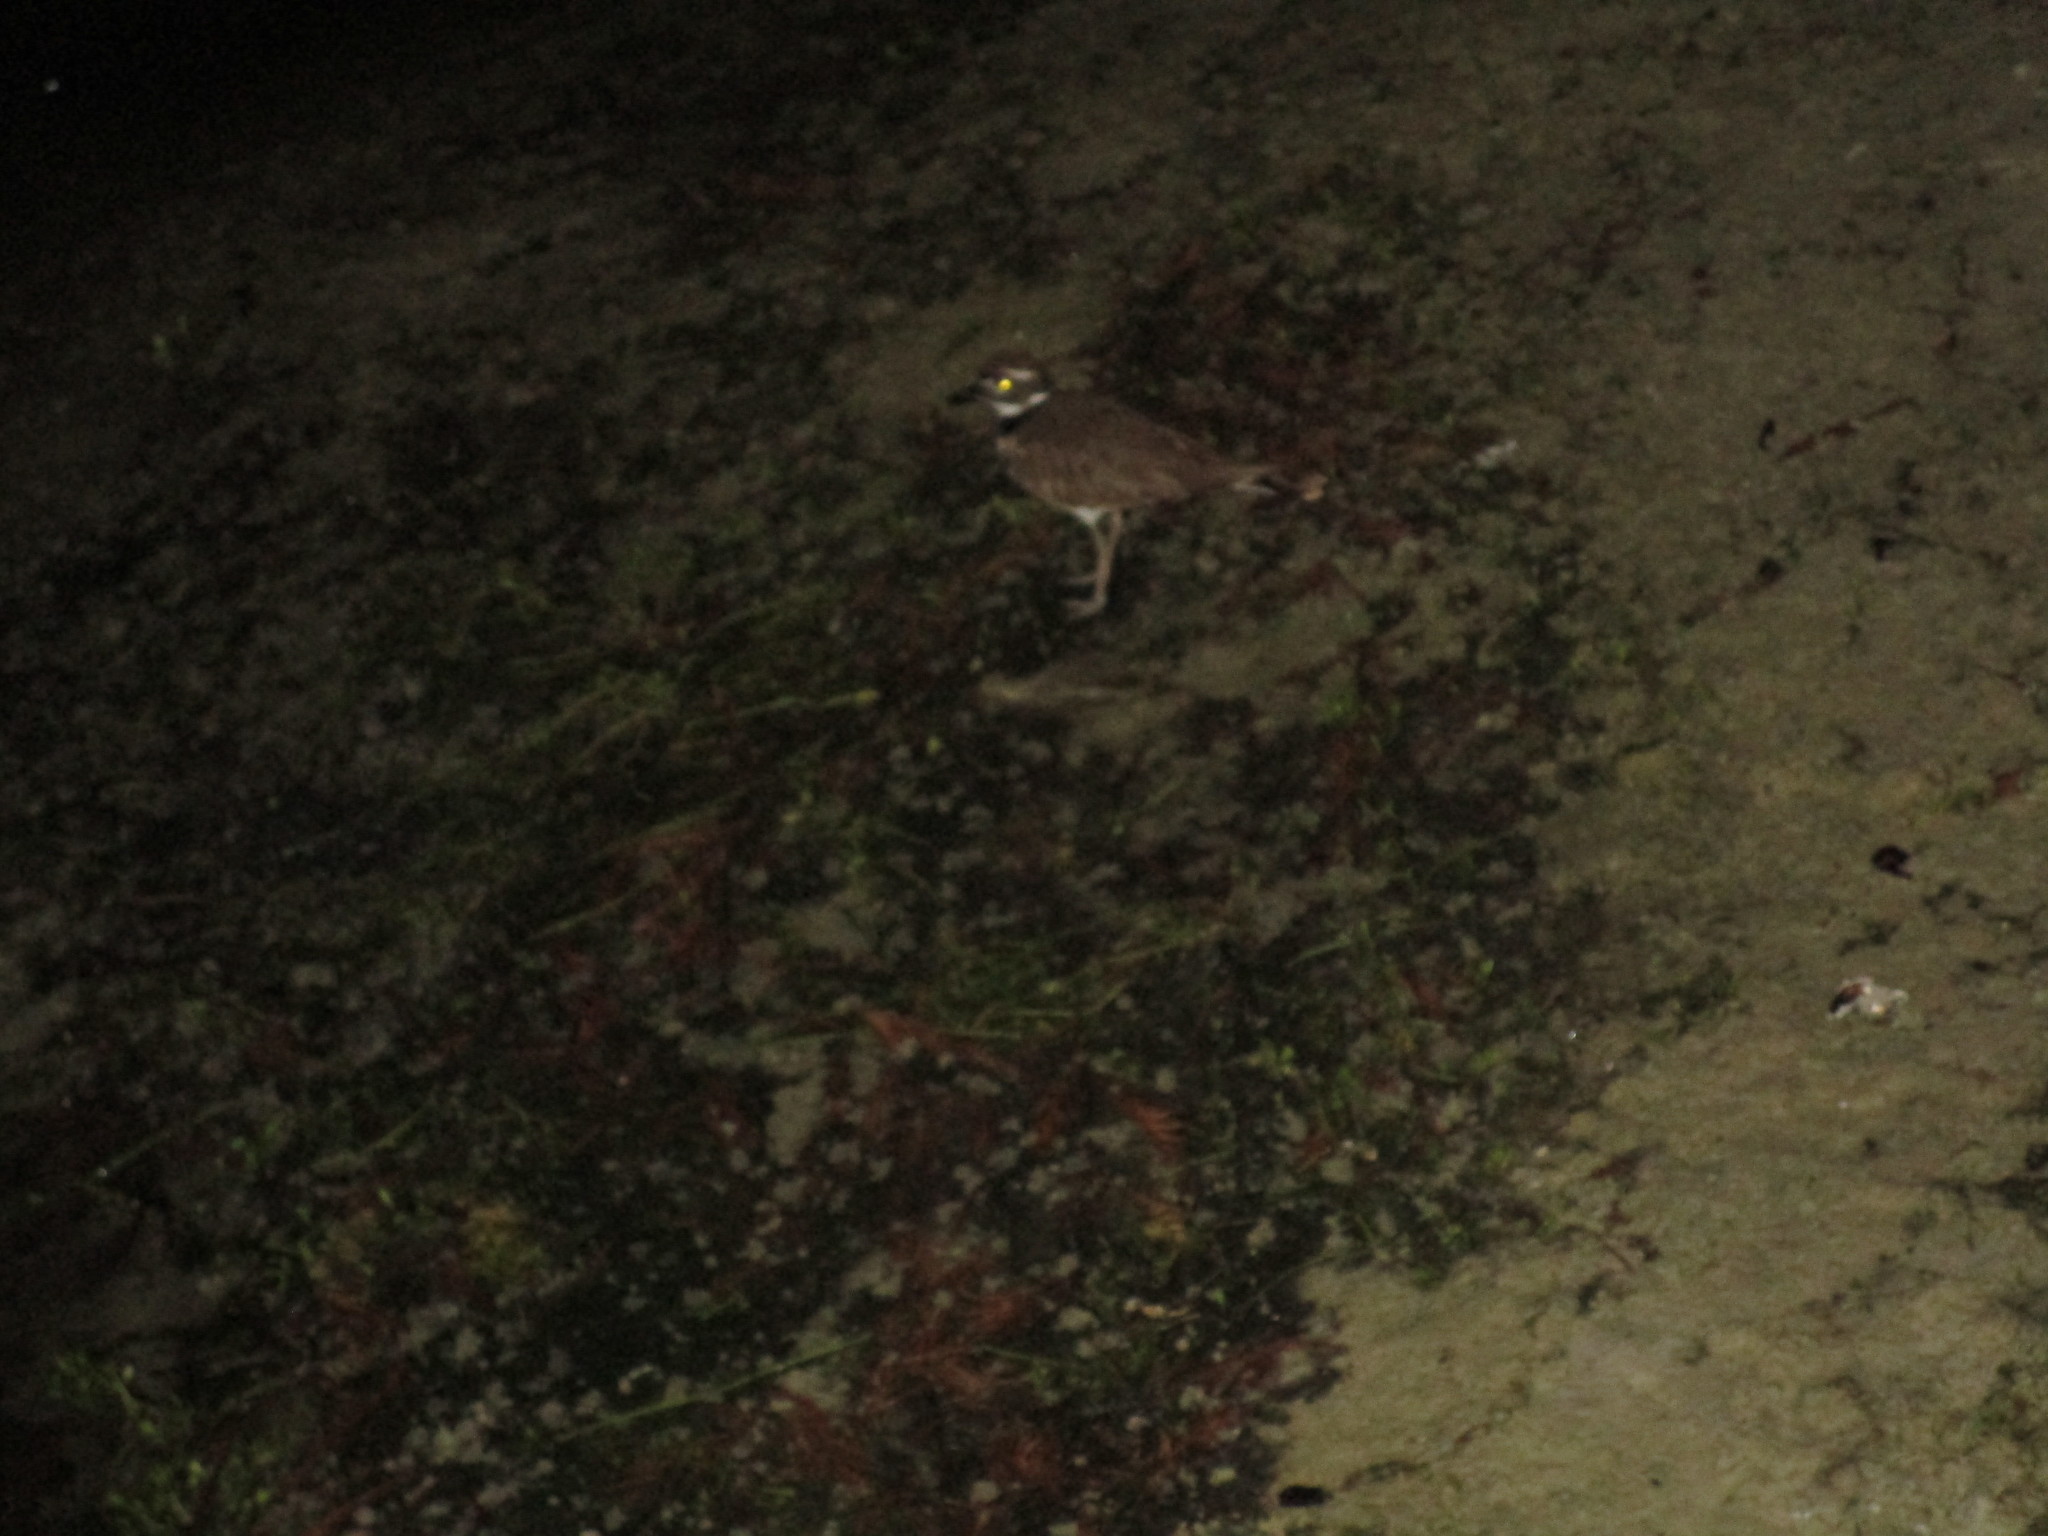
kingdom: Animalia
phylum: Chordata
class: Aves
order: Charadriiformes
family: Charadriidae
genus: Charadrius
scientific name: Charadrius vociferus
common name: Killdeer
